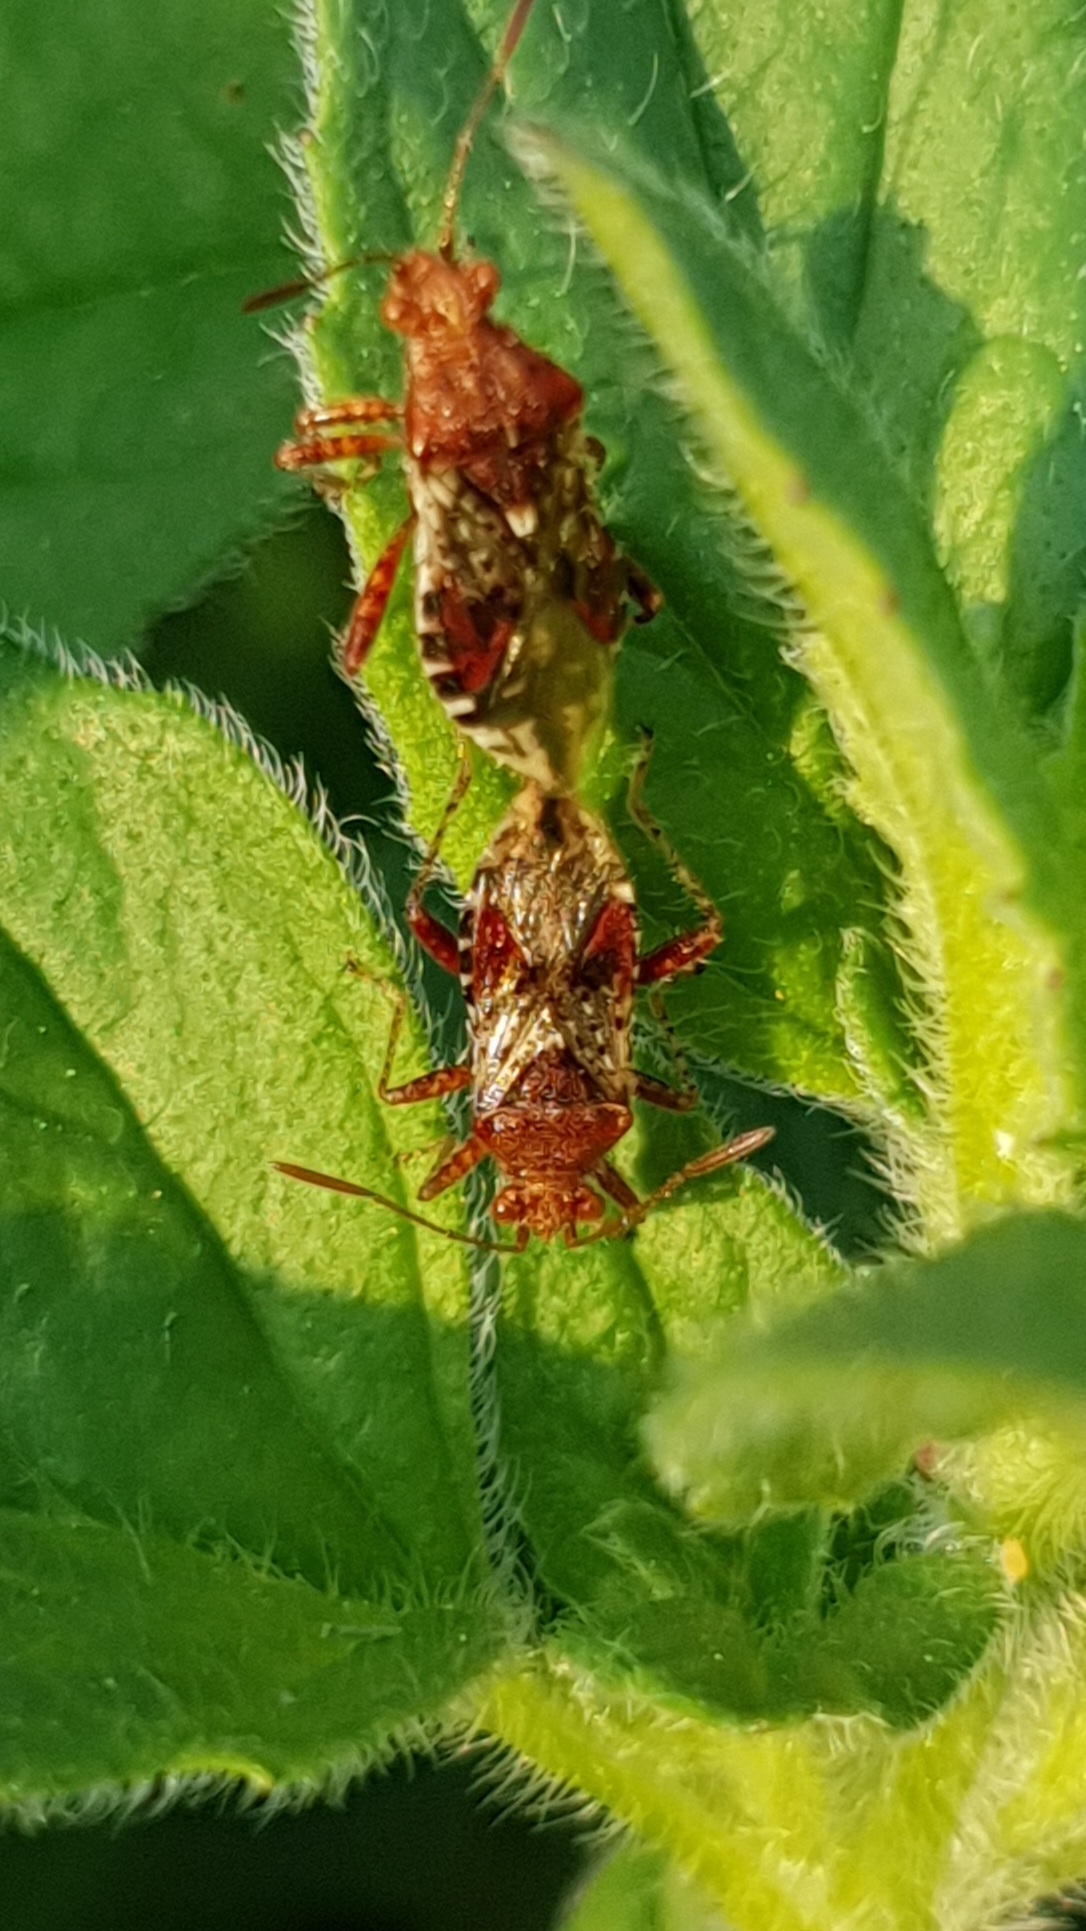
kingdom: Animalia
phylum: Arthropoda
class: Insecta
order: Hemiptera
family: Rhopalidae
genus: Rhopalus
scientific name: Rhopalus subrufus
